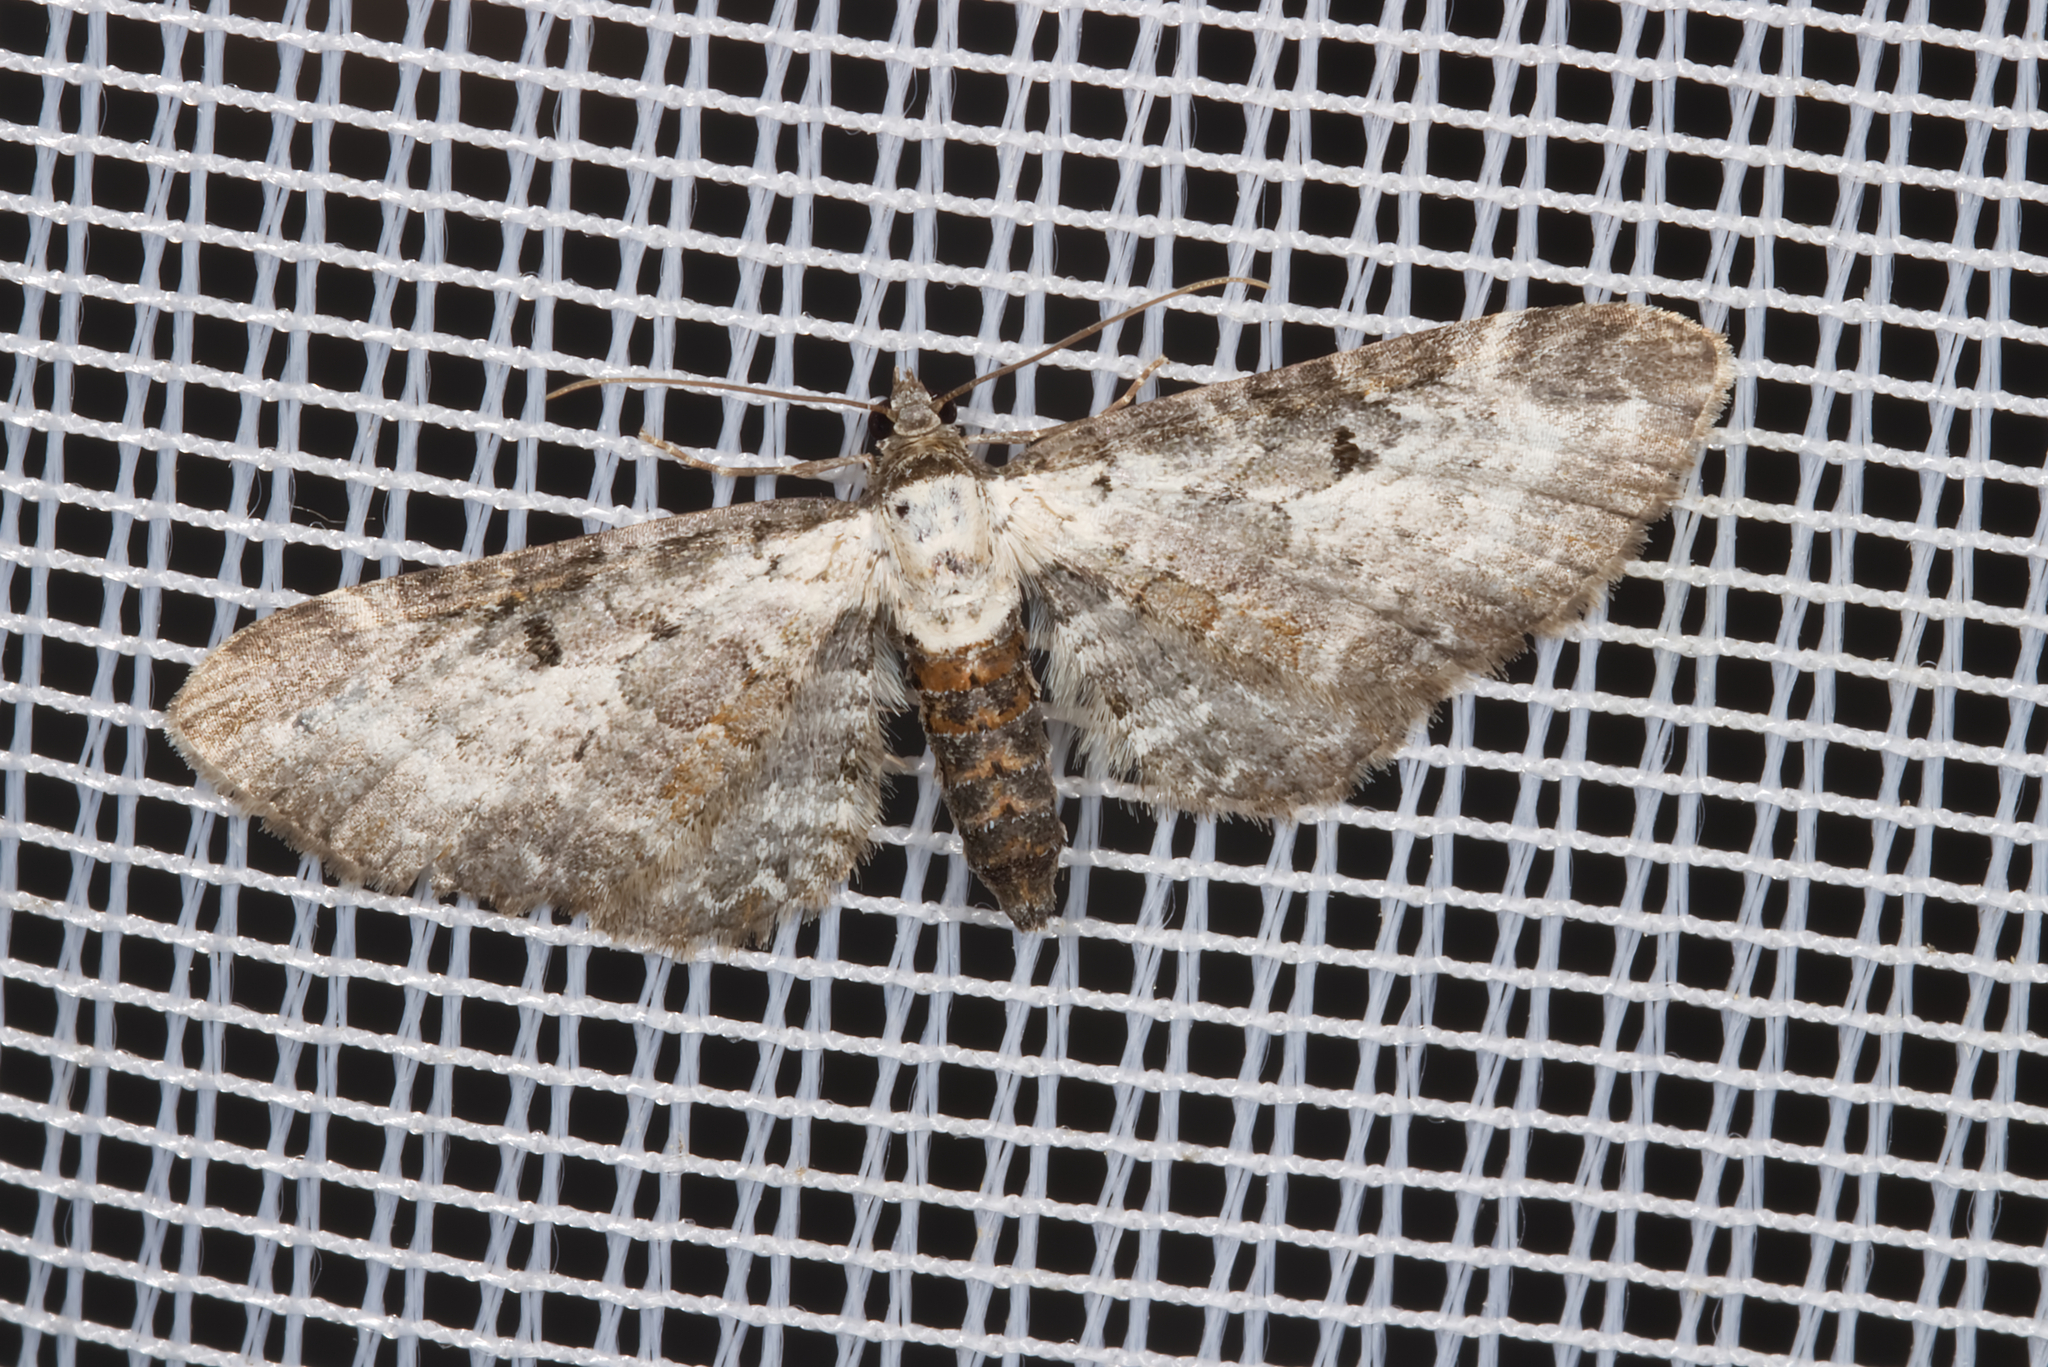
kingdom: Animalia
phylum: Arthropoda
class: Insecta
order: Lepidoptera
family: Geometridae
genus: Eupithecia
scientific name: Eupithecia succenturiata
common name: Bordered pug
